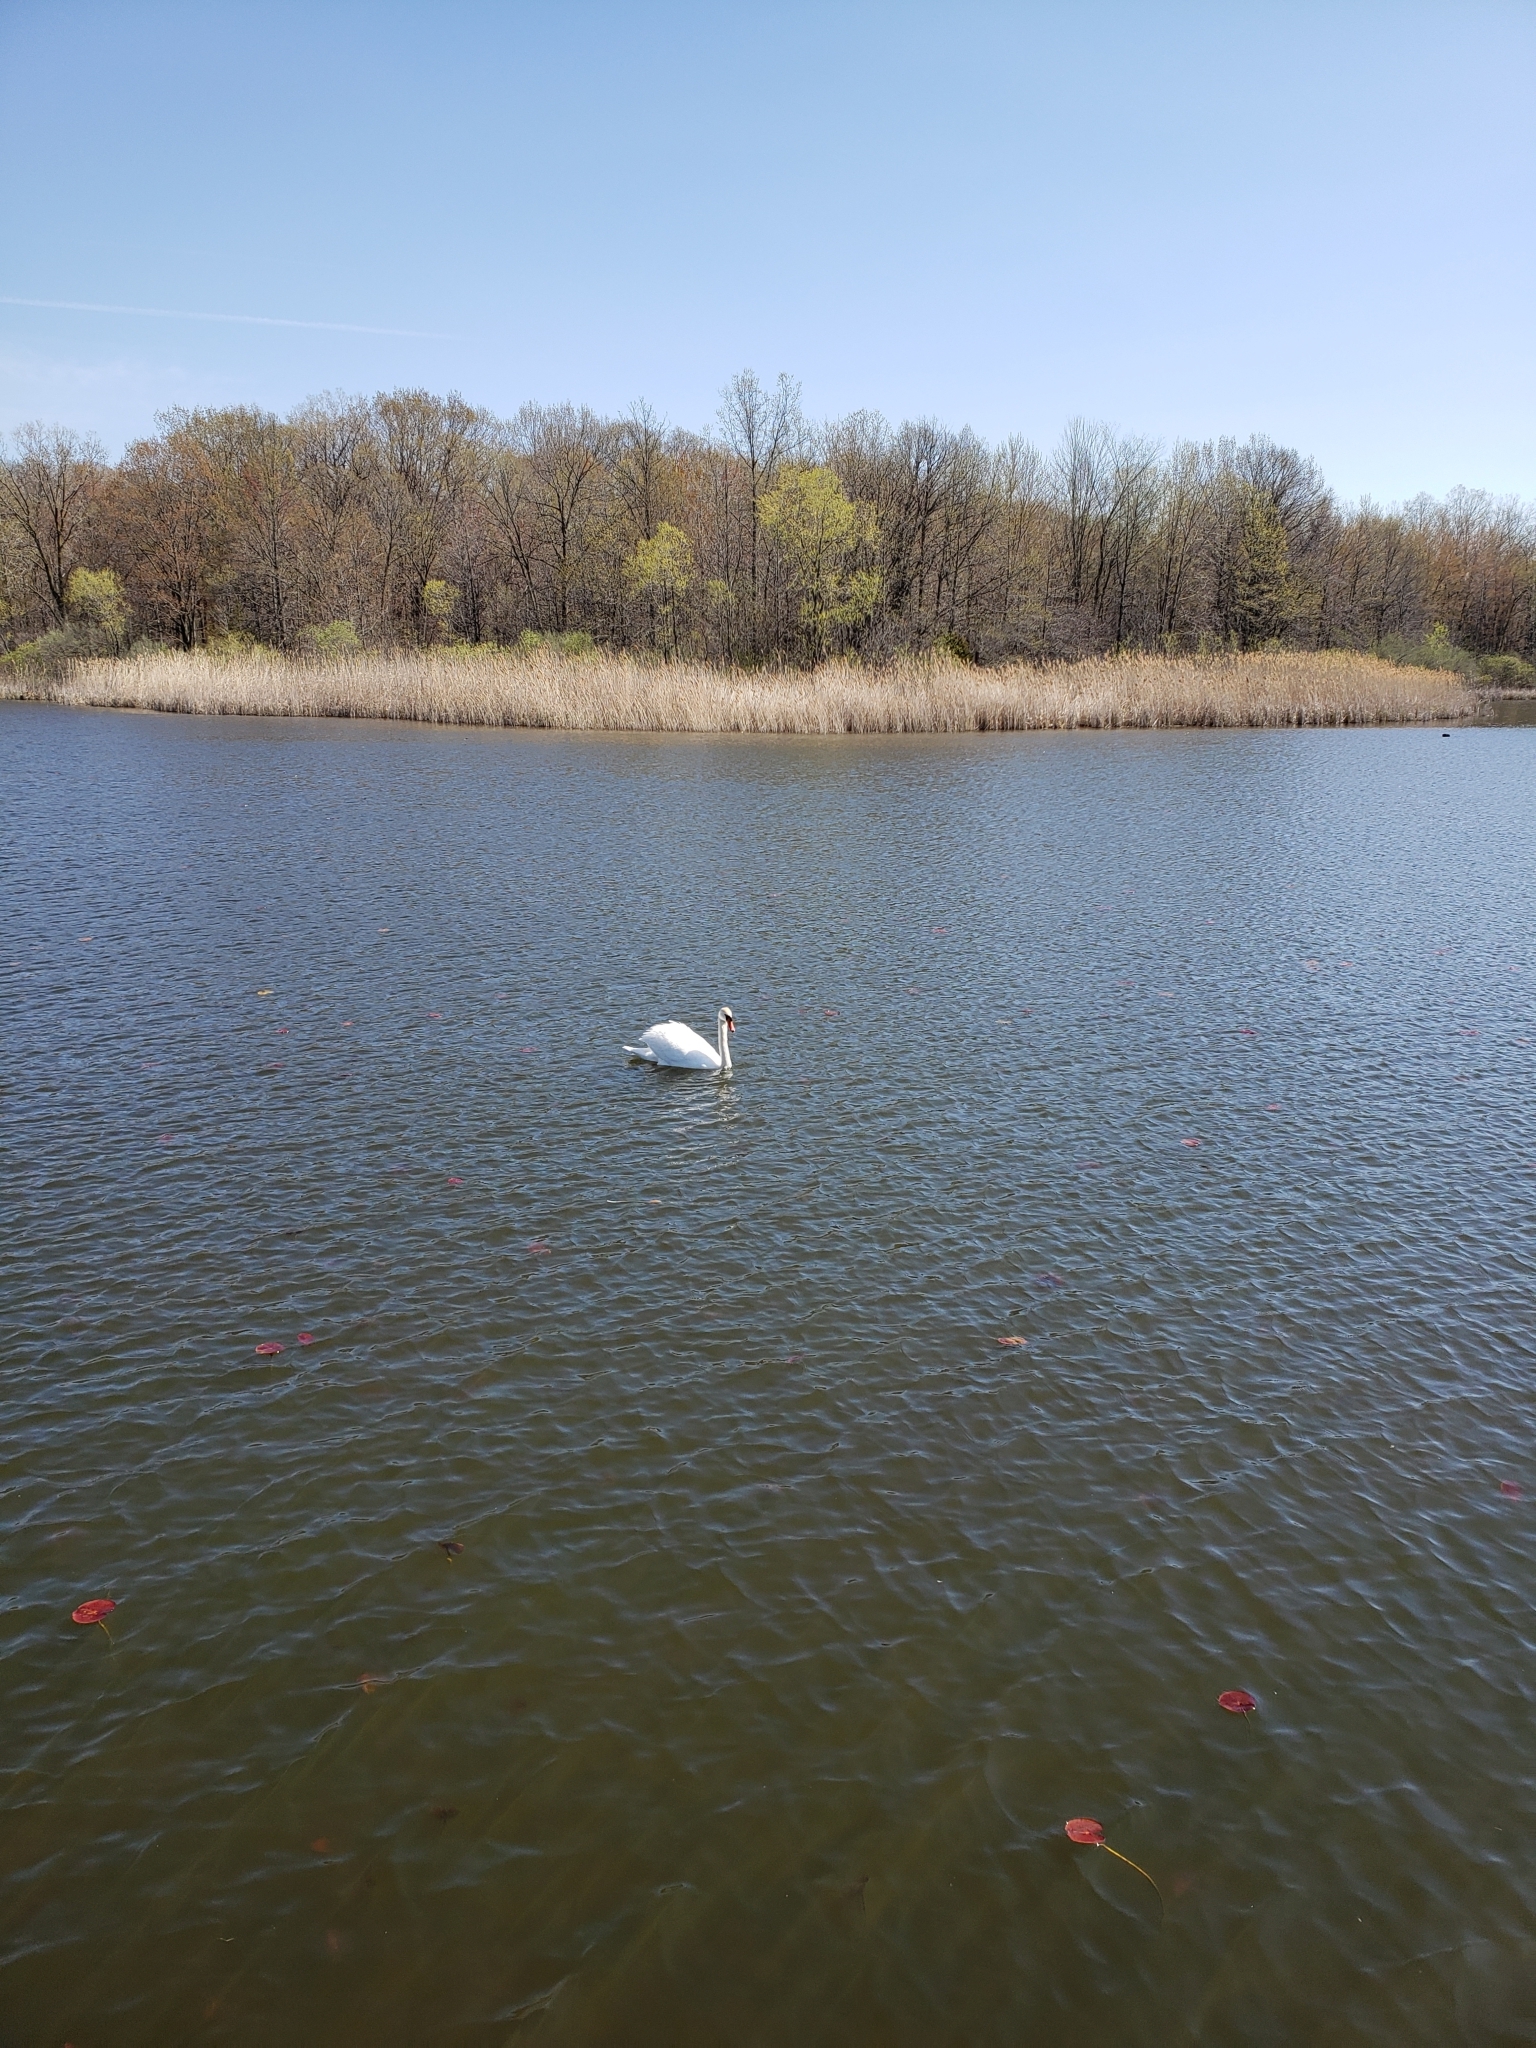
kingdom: Animalia
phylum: Chordata
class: Aves
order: Anseriformes
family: Anatidae
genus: Cygnus
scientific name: Cygnus olor
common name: Mute swan
